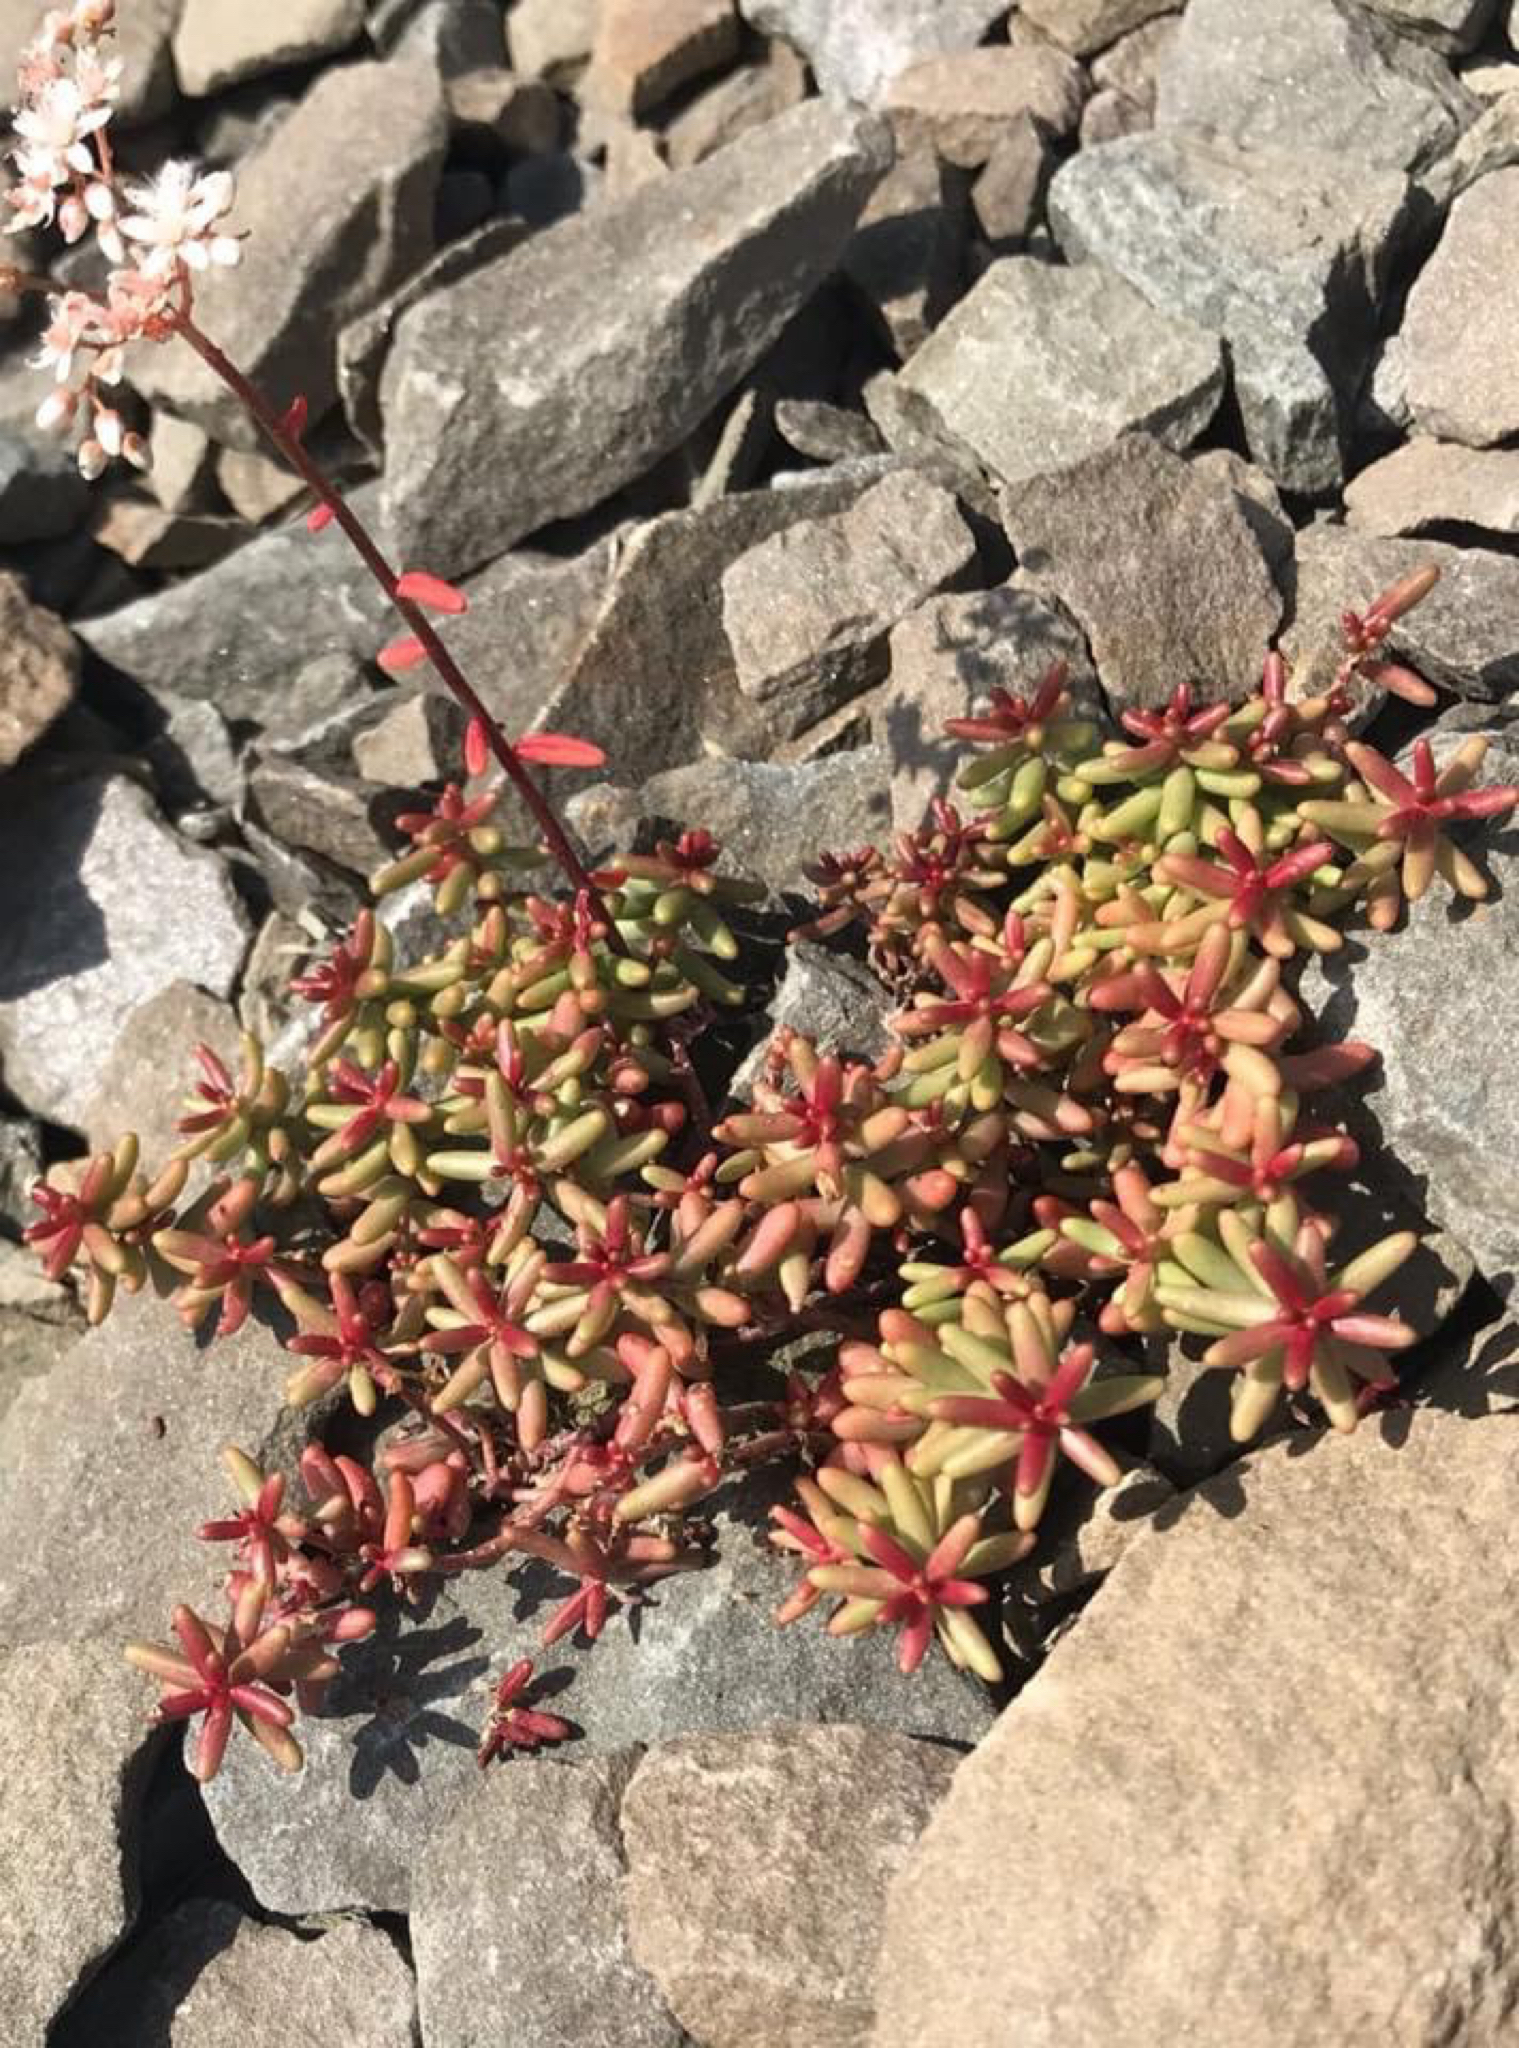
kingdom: Plantae
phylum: Tracheophyta
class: Magnoliopsida
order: Saxifragales
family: Crassulaceae
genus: Sedum
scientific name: Sedum album
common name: White stonecrop
